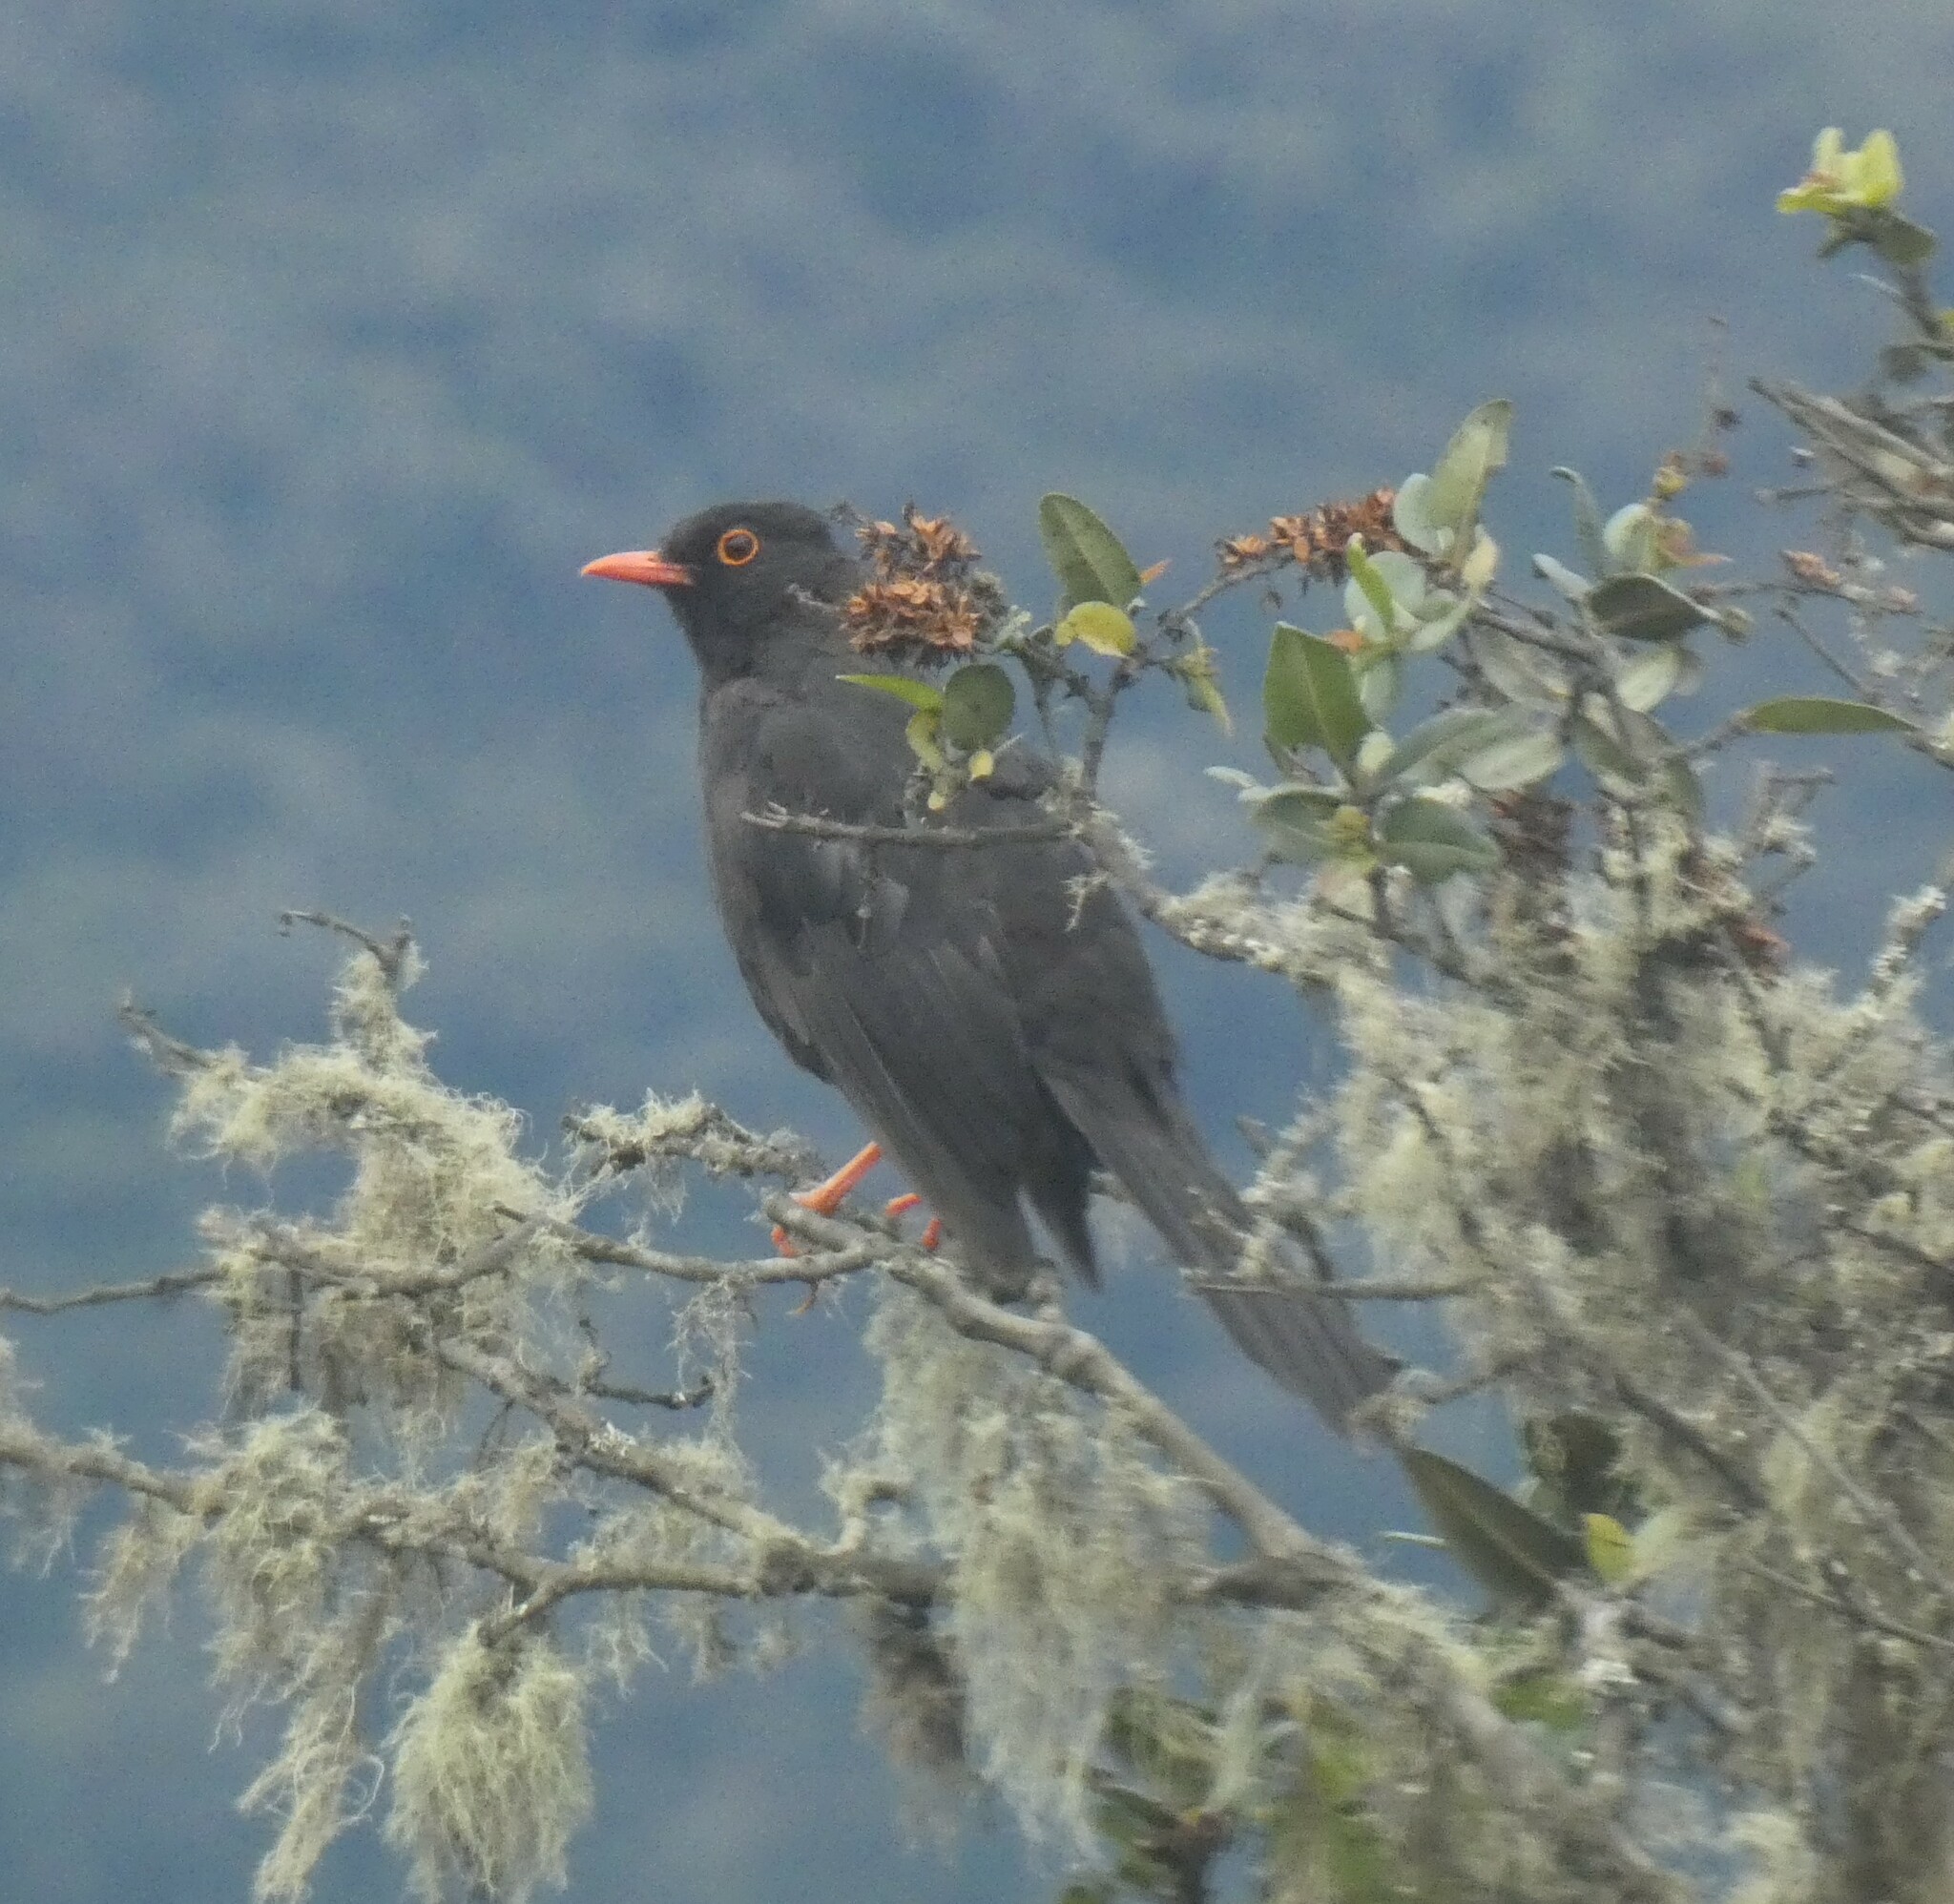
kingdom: Animalia
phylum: Chordata
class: Aves
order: Passeriformes
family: Turdidae
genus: Turdus
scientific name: Turdus fuscater
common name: Great thrush
